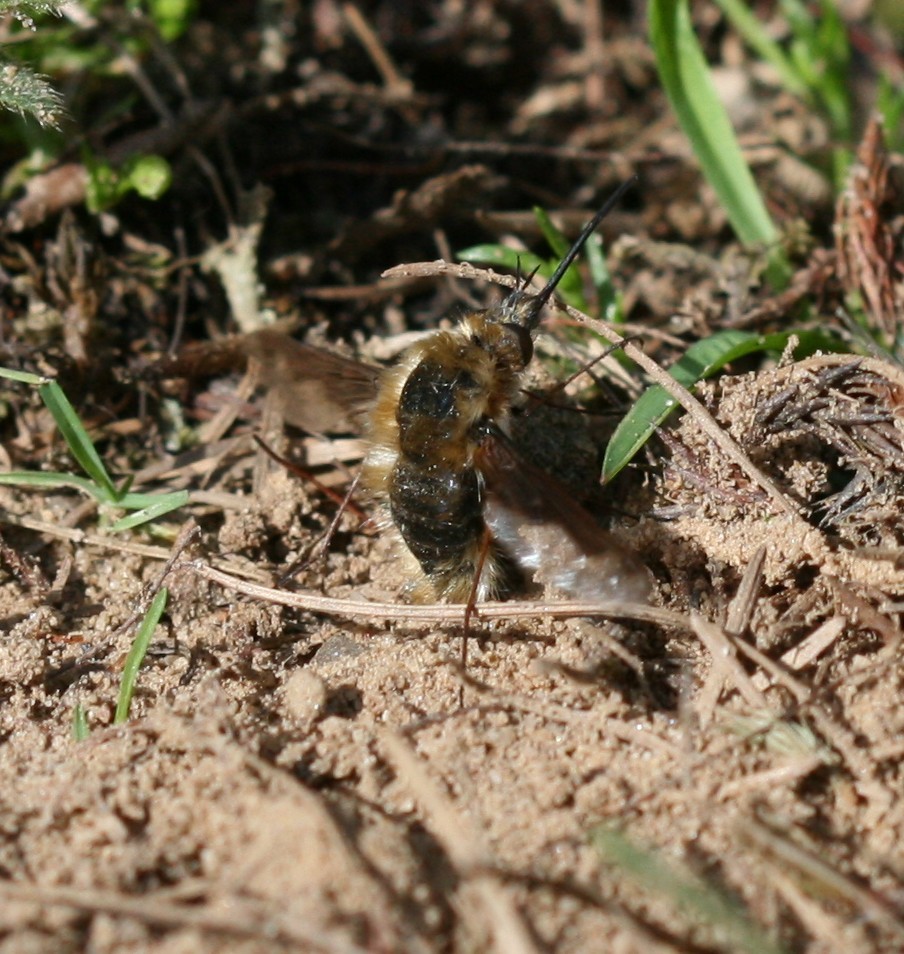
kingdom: Animalia
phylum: Arthropoda
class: Insecta
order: Diptera
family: Bombyliidae
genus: Bombylius
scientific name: Bombylius major
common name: Bee fly
